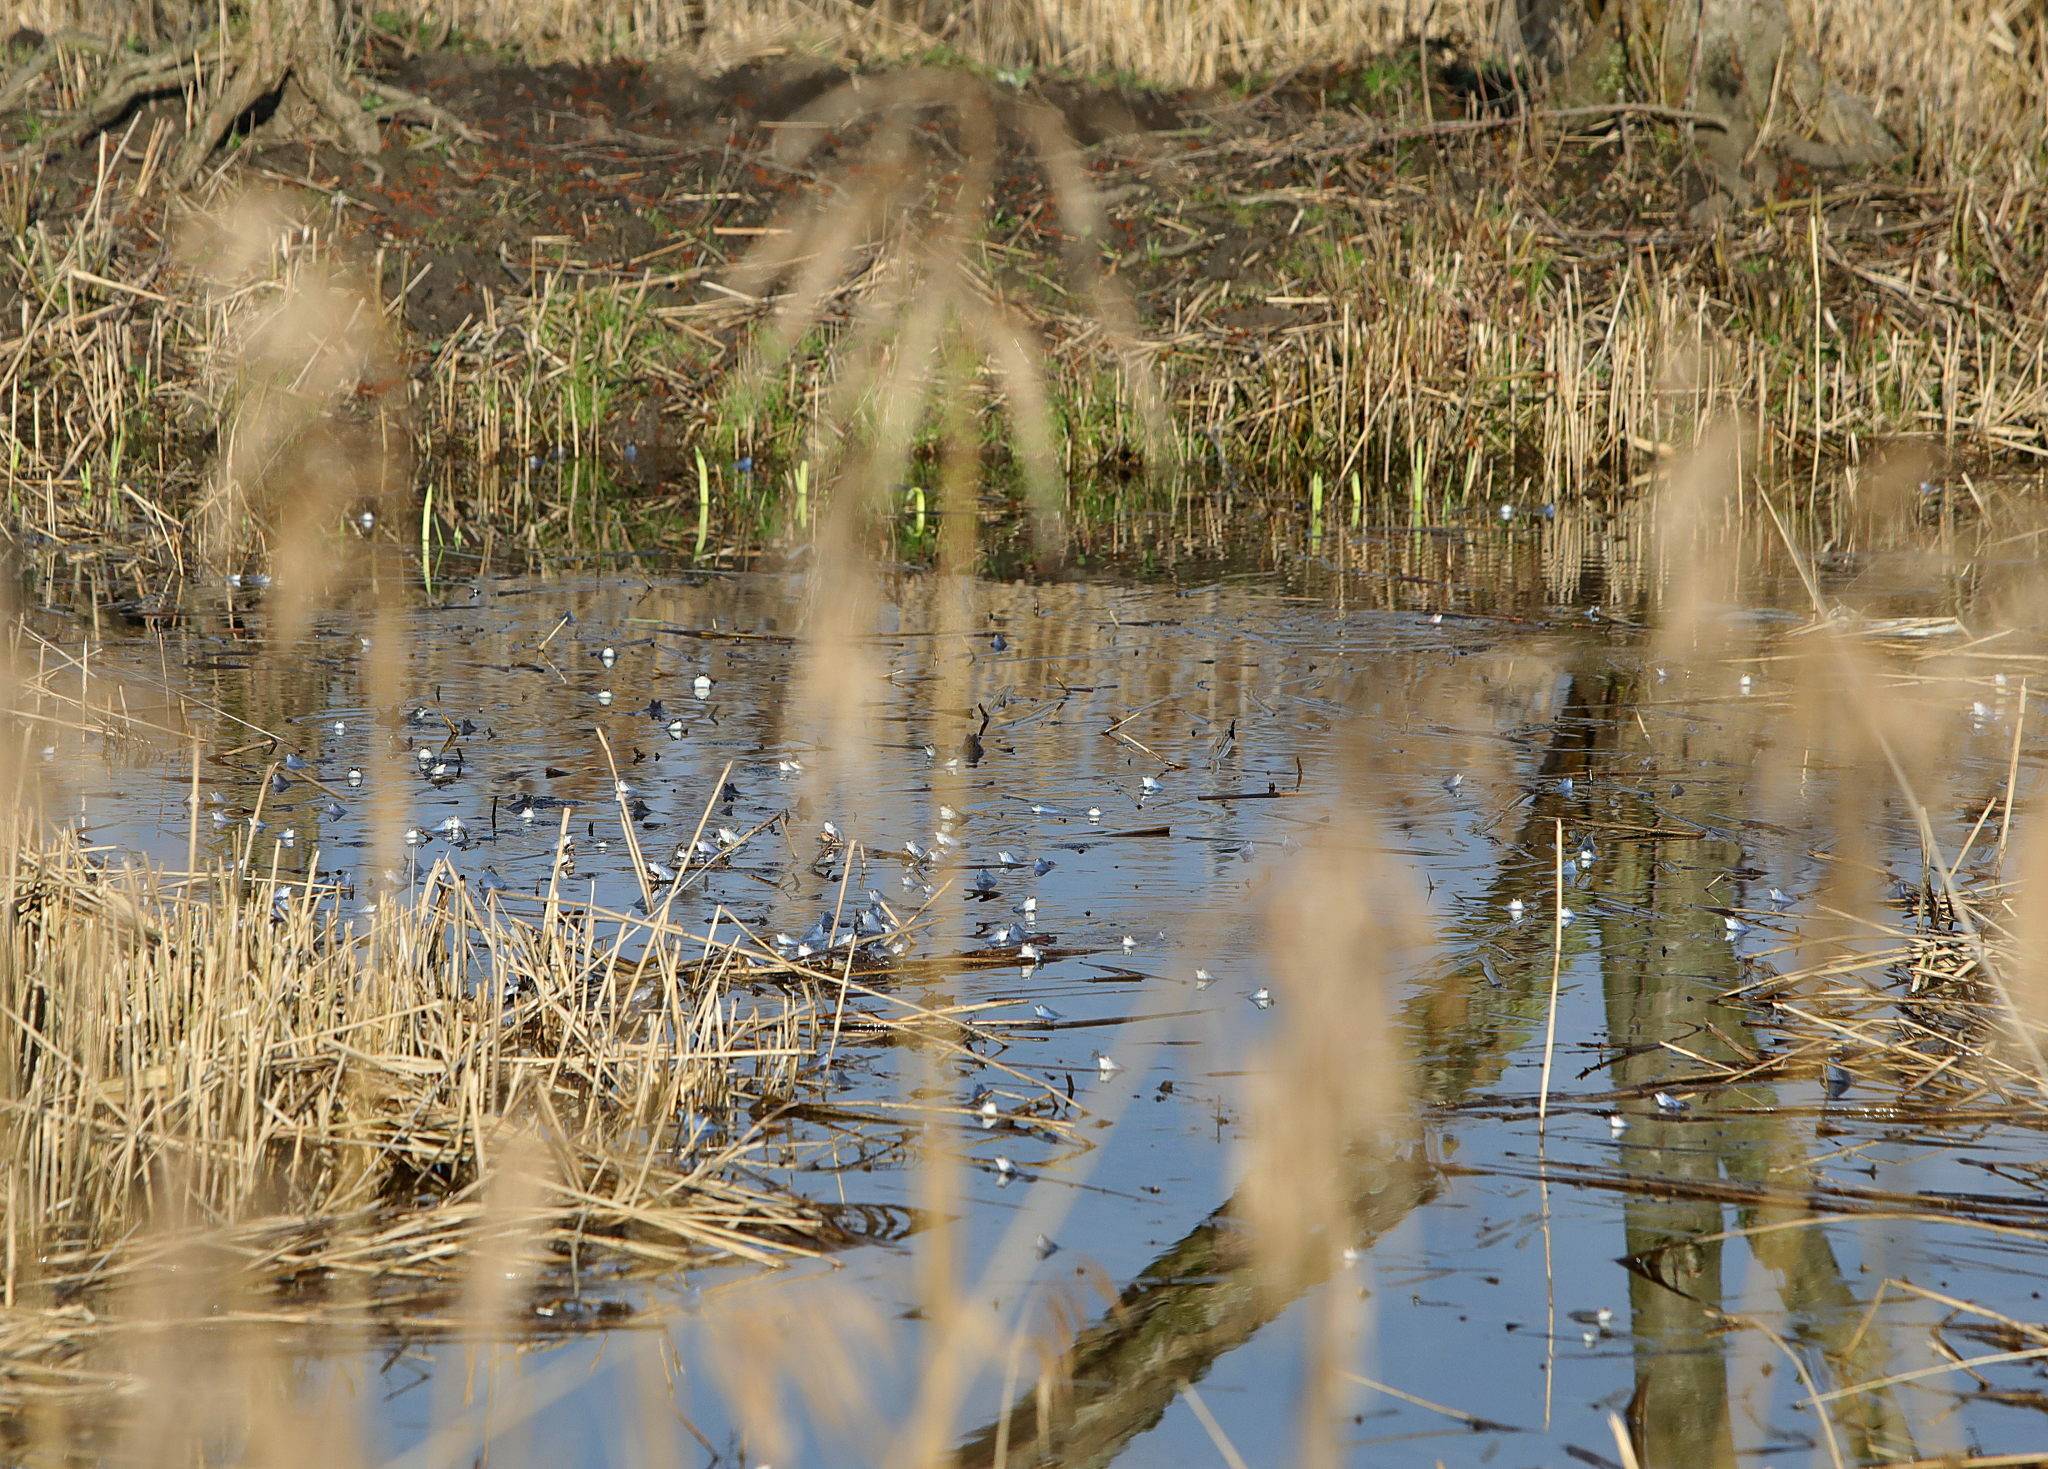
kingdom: Animalia
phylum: Chordata
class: Amphibia
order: Anura
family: Ranidae
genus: Rana
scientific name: Rana arvalis
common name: Moor frog
